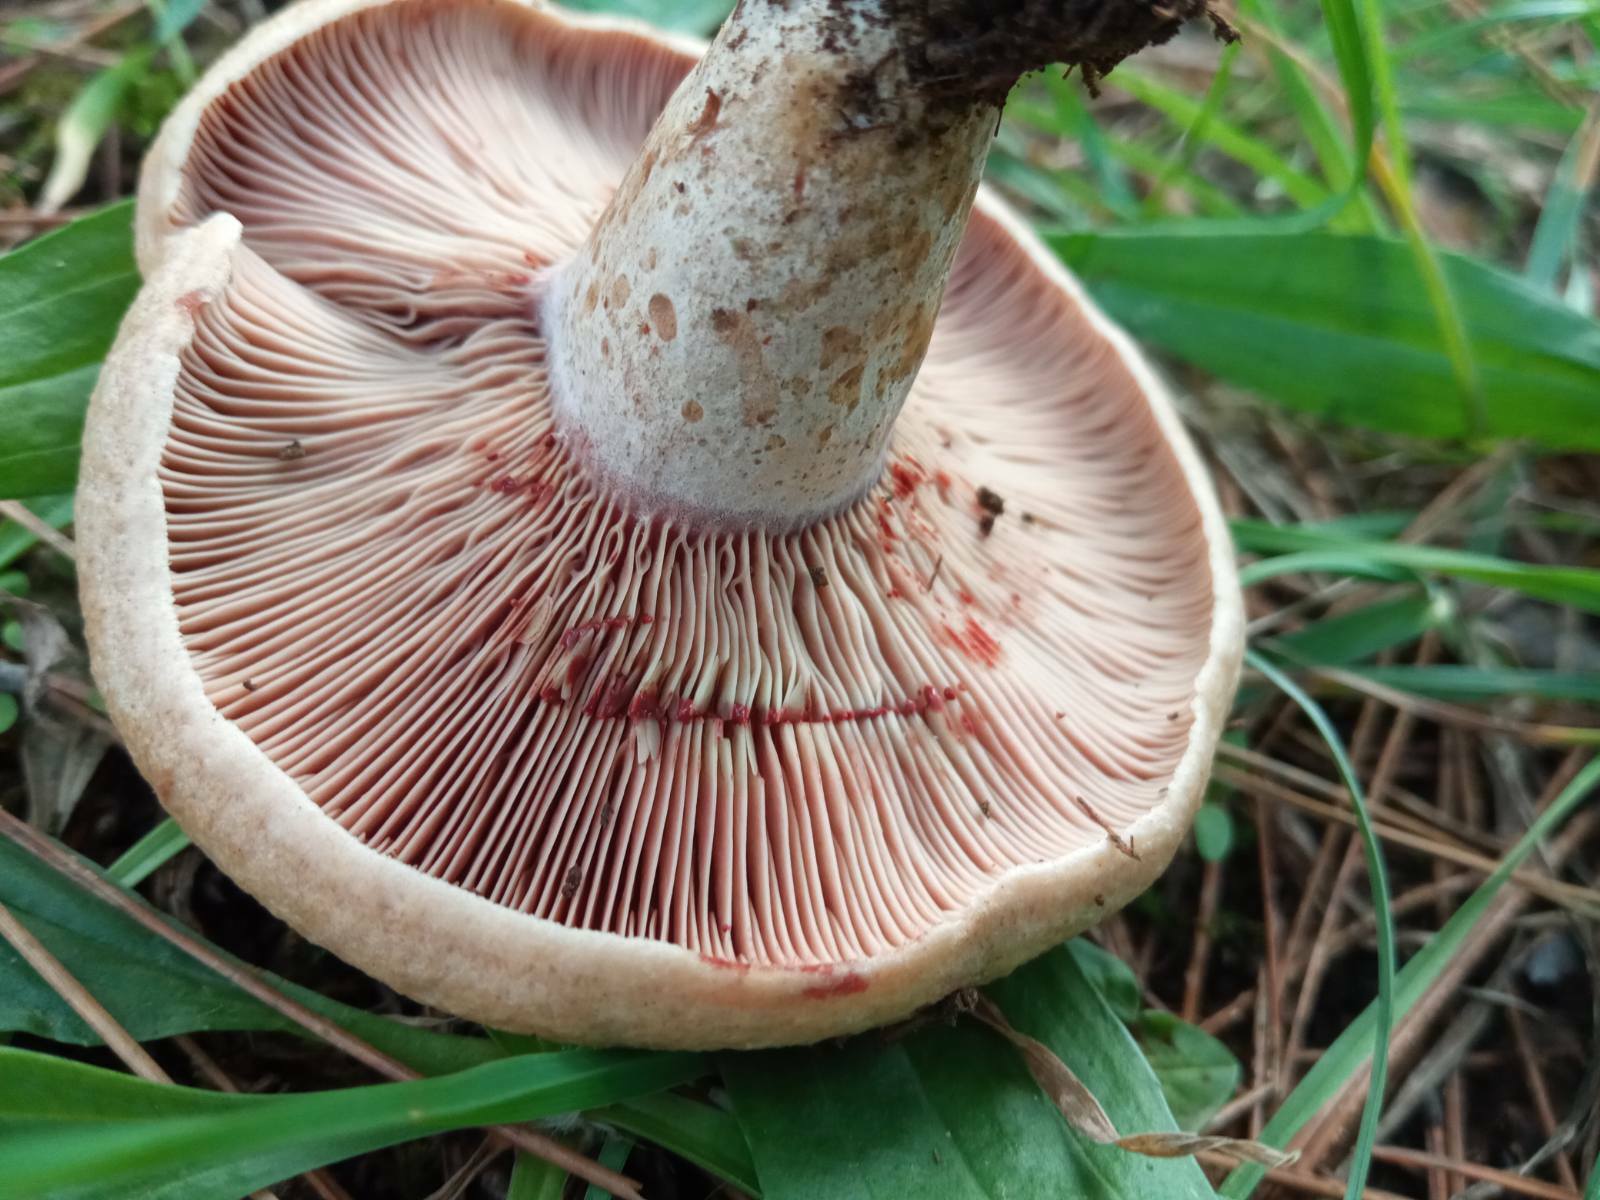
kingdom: Fungi
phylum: Basidiomycota
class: Agaricomycetes
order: Russulales
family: Russulaceae
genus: Lactarius
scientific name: Lactarius sanguifluus
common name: Bloody milkcap
